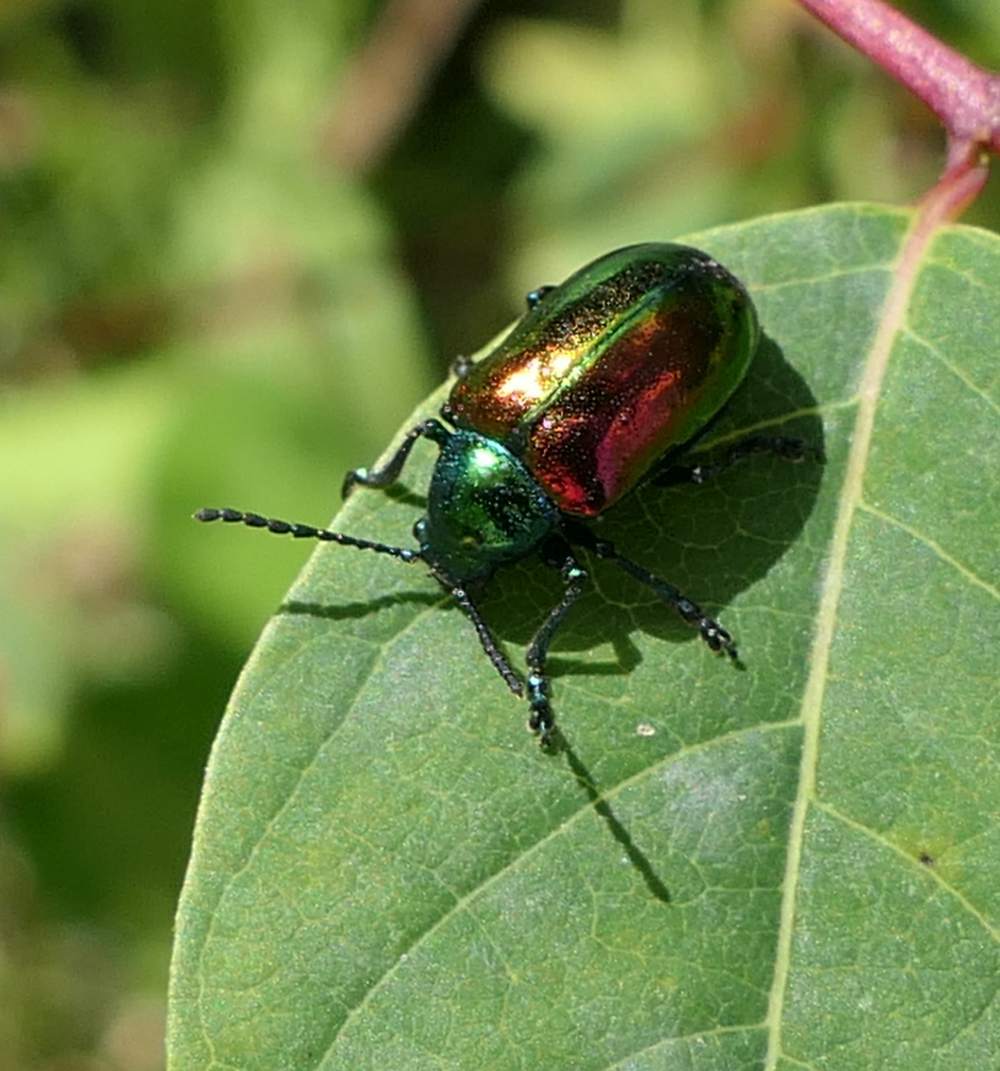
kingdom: Animalia
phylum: Arthropoda
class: Insecta
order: Coleoptera
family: Chrysomelidae
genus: Chrysochus
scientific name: Chrysochus auratus
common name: Dogbane leaf beetle
